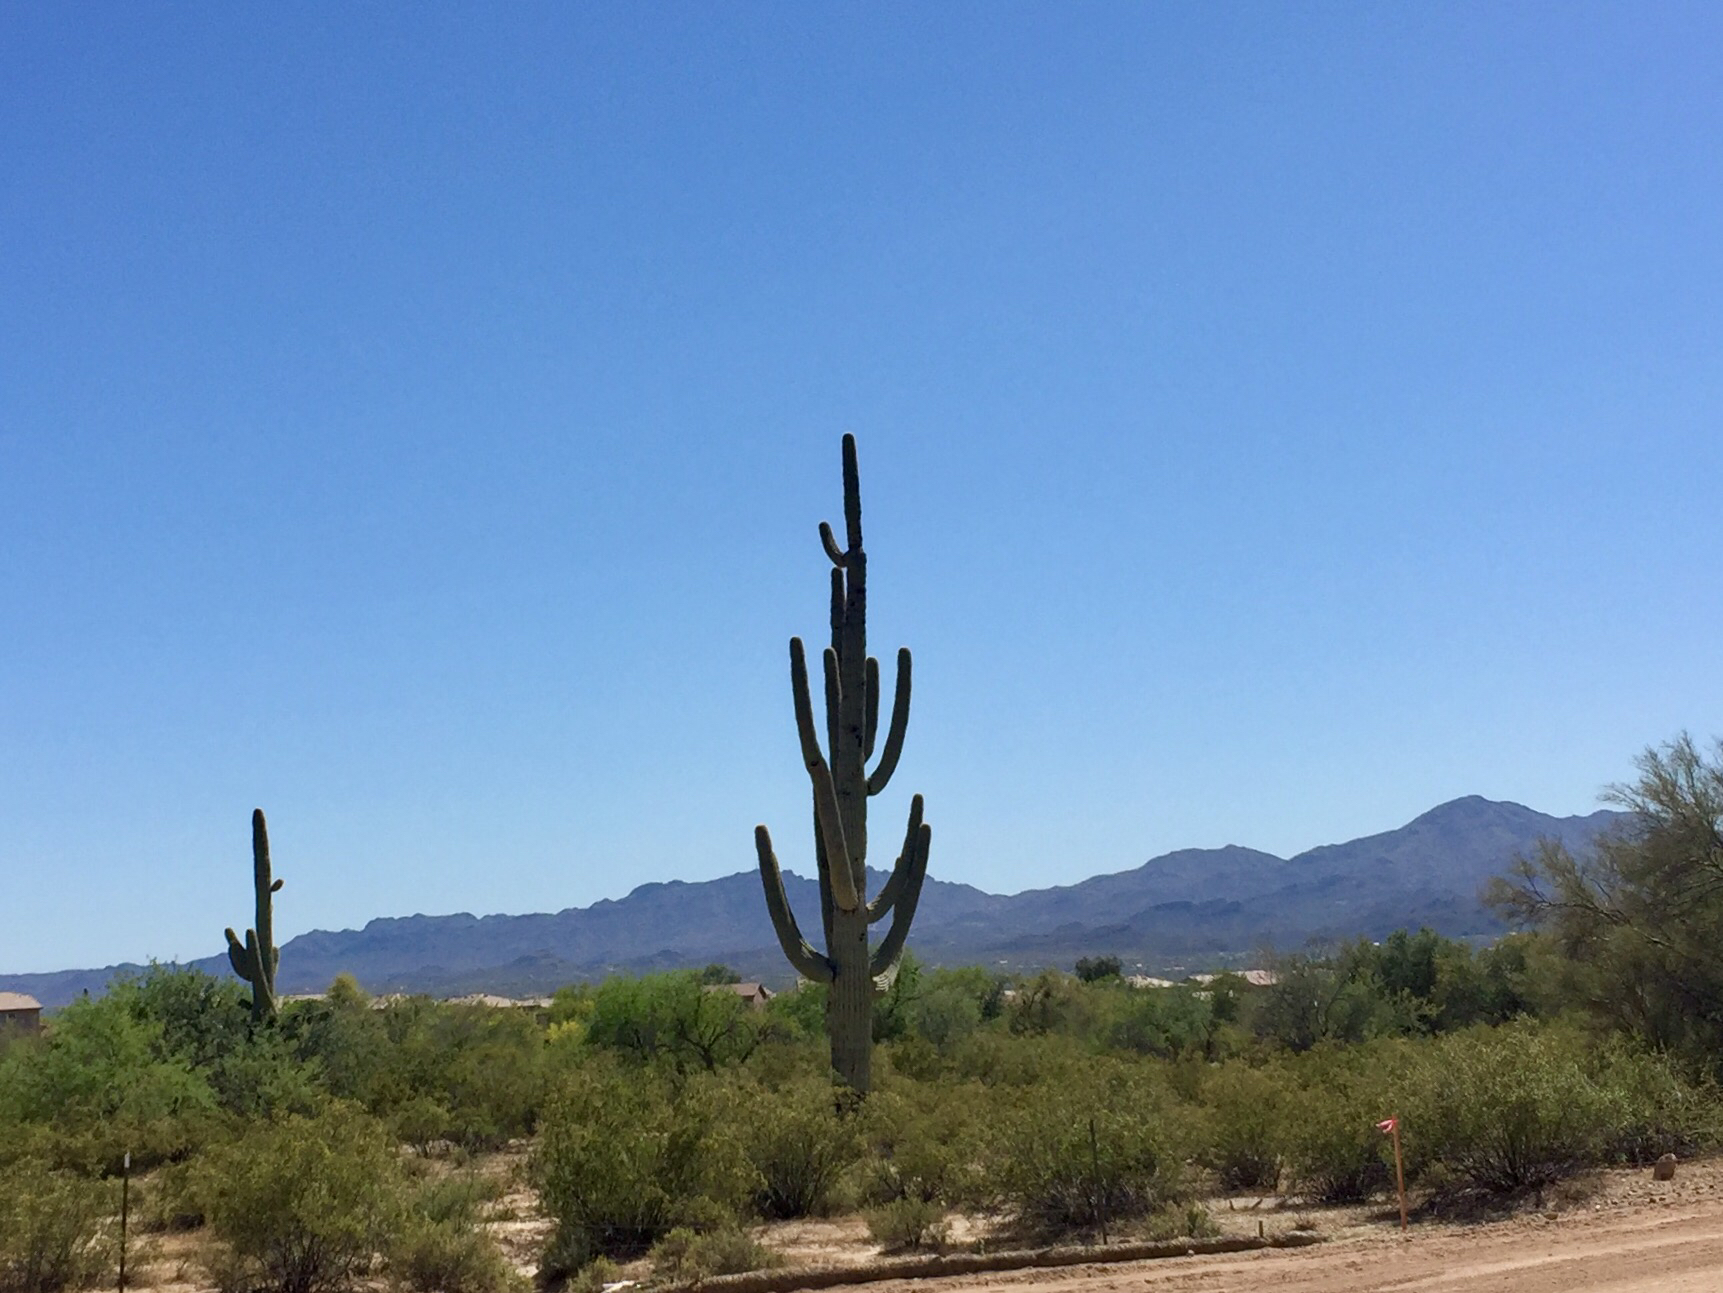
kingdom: Plantae
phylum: Tracheophyta
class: Magnoliopsida
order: Caryophyllales
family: Cactaceae
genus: Carnegiea
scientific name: Carnegiea gigantea
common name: Saguaro
